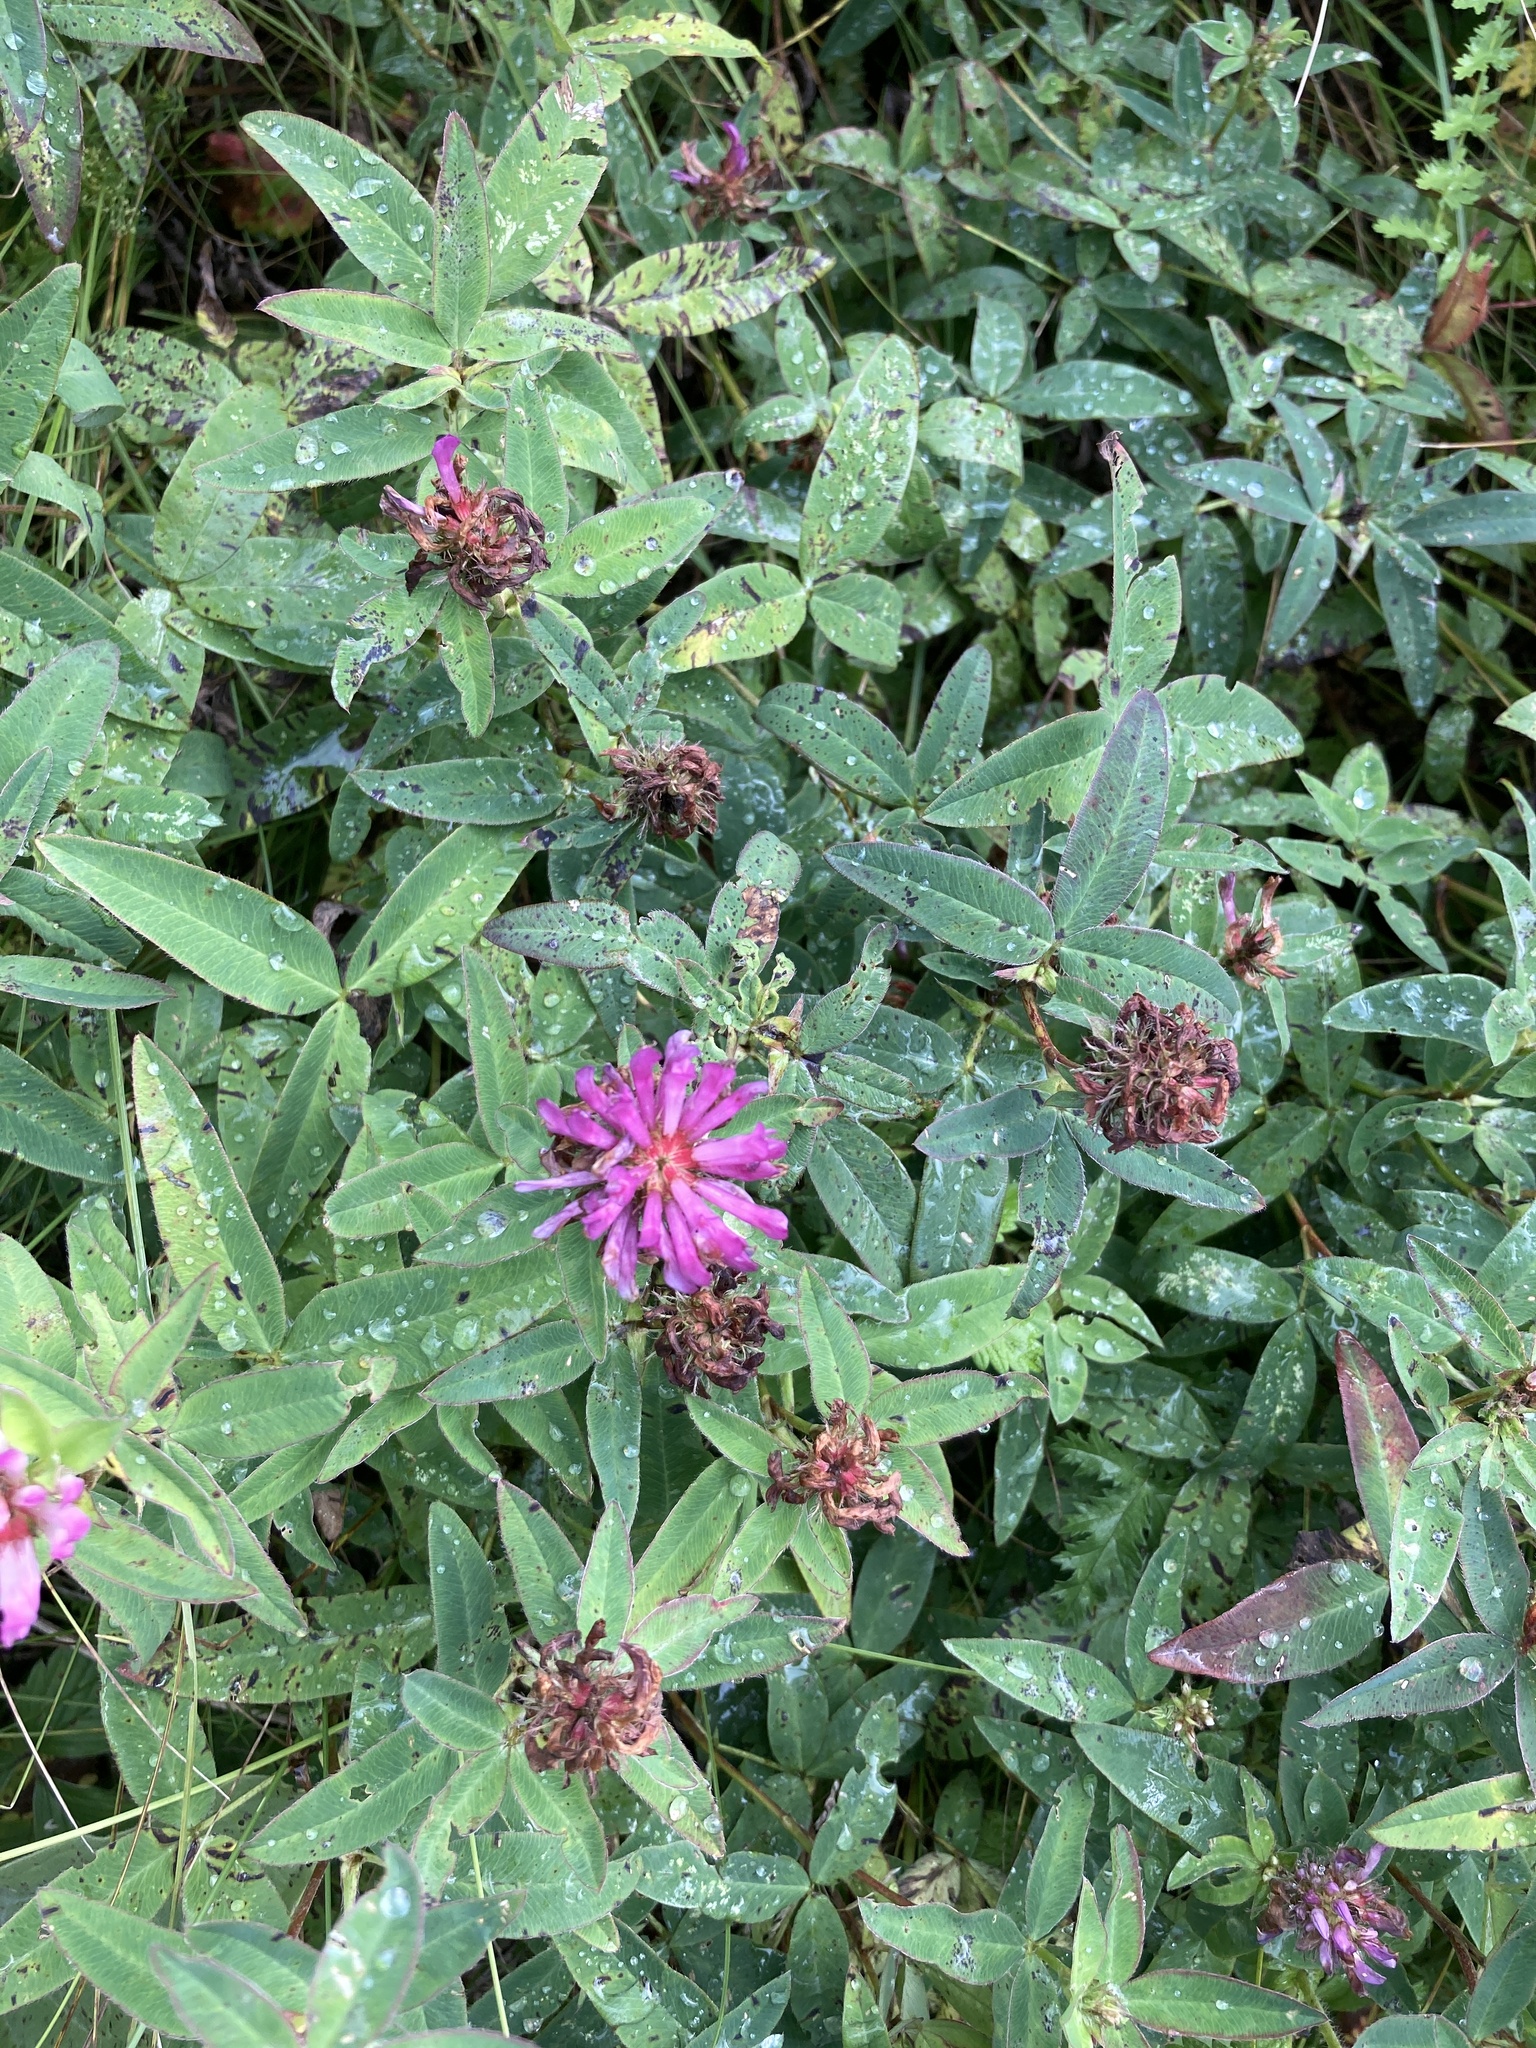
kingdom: Plantae
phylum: Tracheophyta
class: Magnoliopsida
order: Fabales
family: Fabaceae
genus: Trifolium
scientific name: Trifolium medium
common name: Zigzag clover
